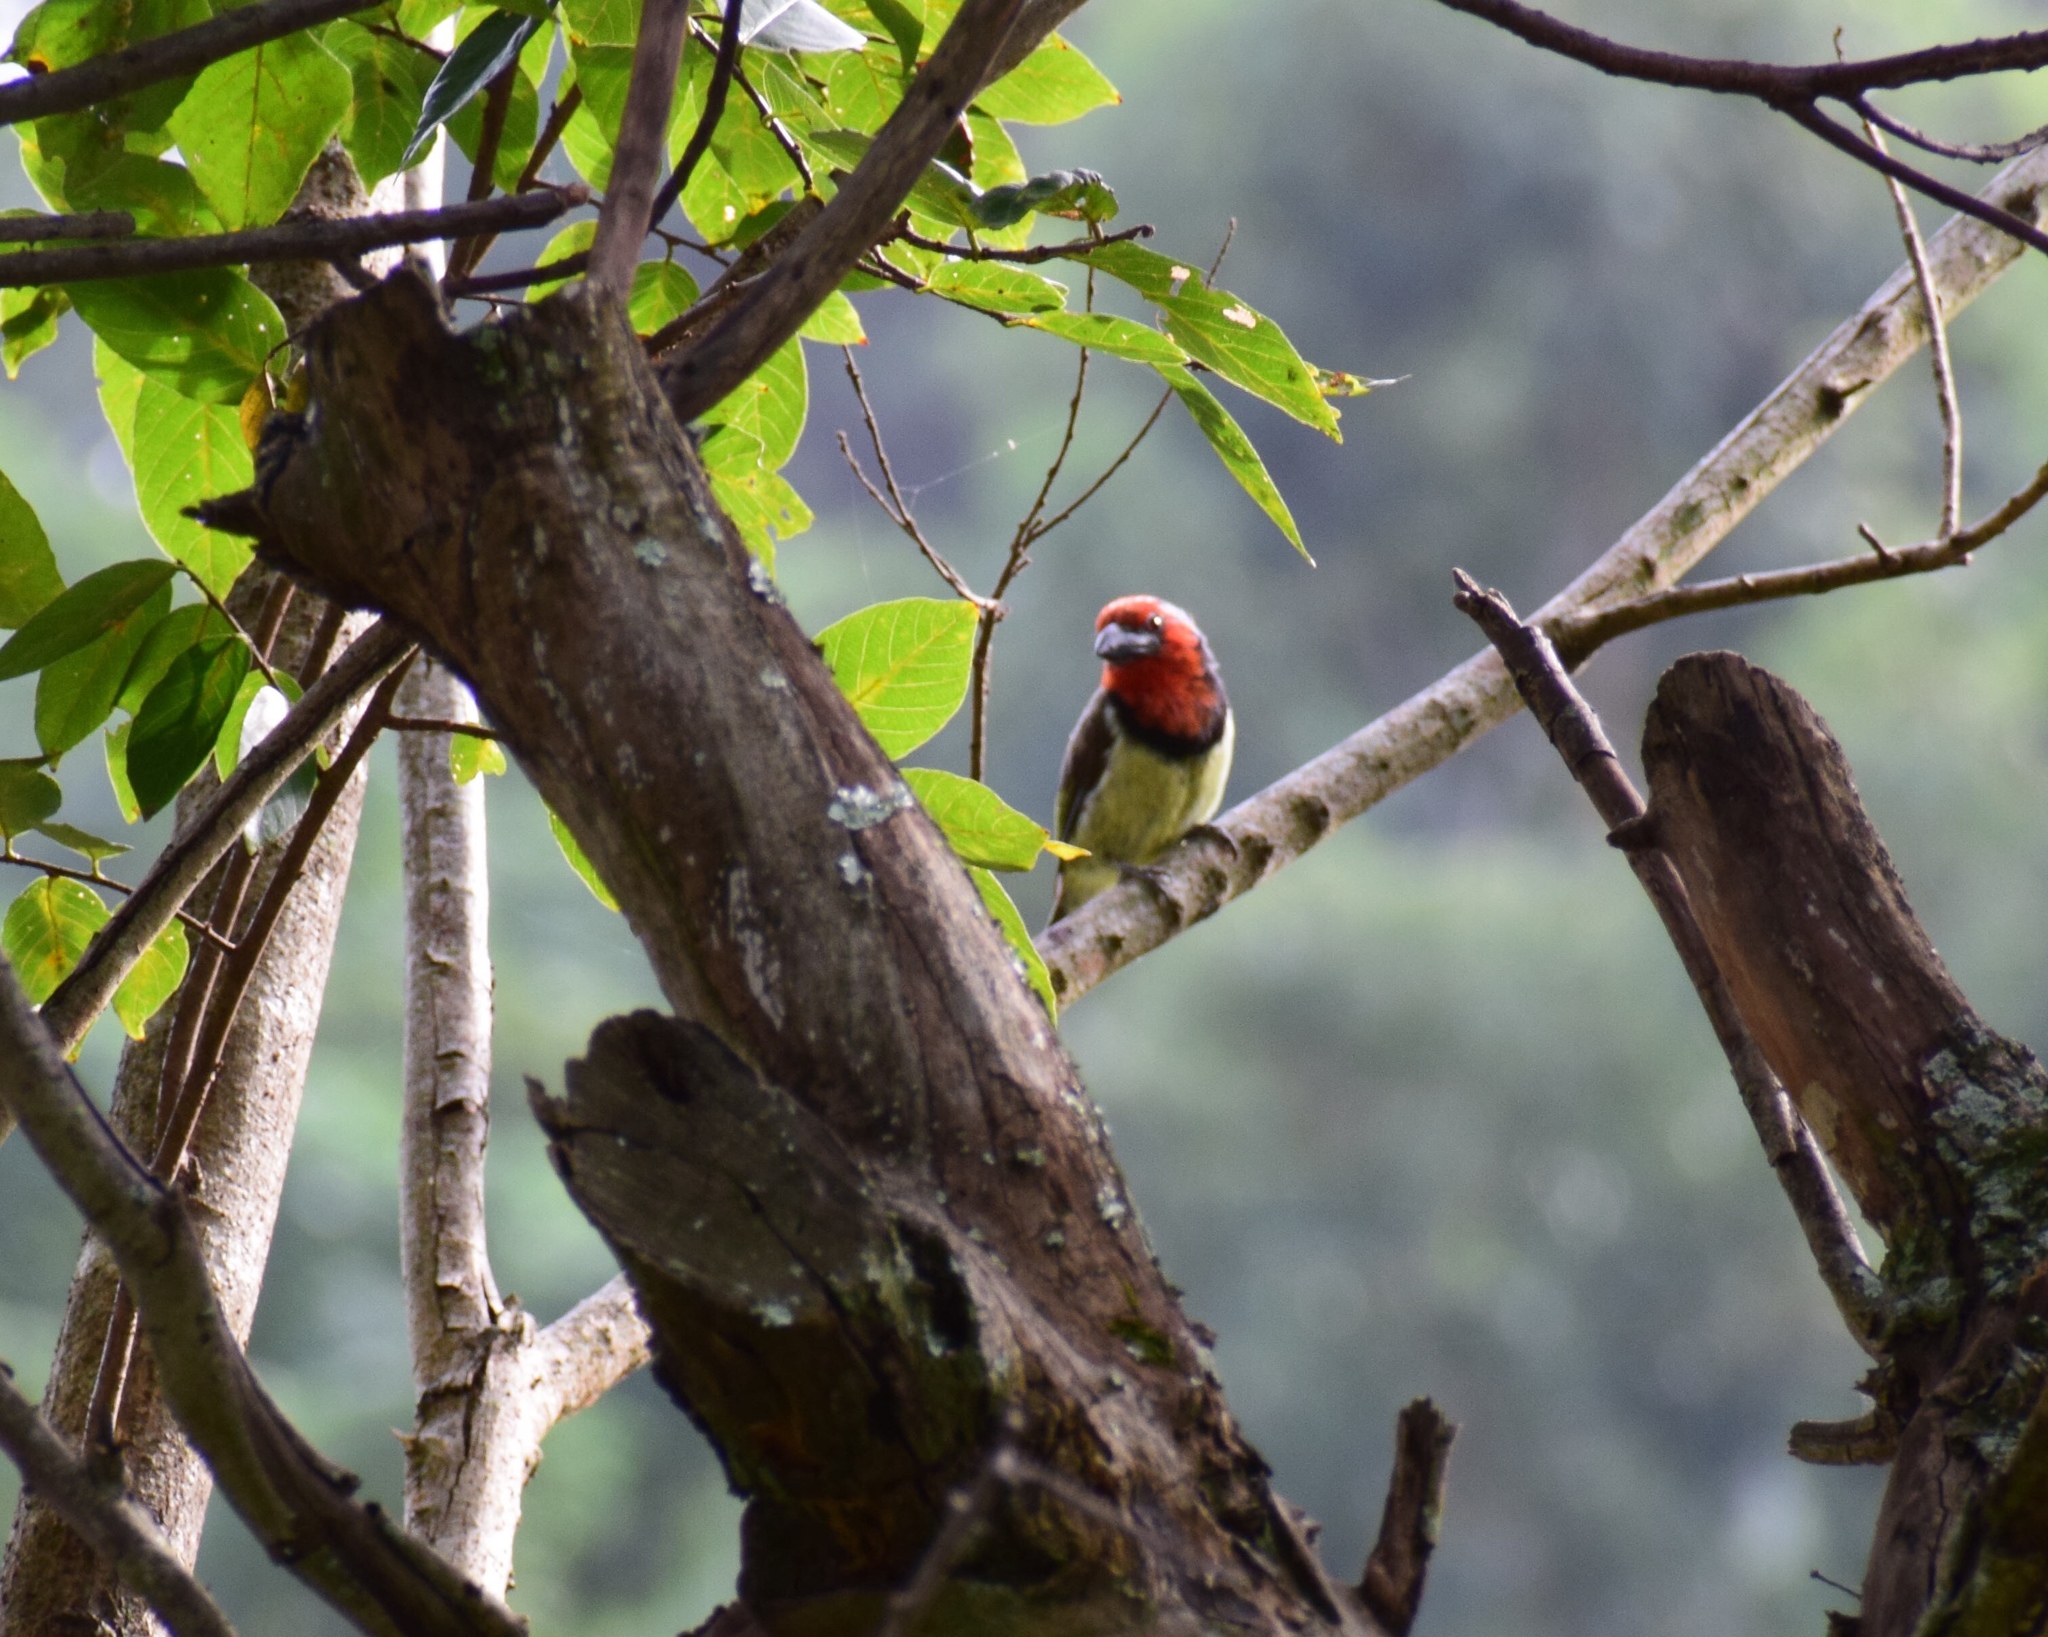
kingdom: Animalia
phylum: Chordata
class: Aves
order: Piciformes
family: Lybiidae
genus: Lybius
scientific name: Lybius torquatus
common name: Black-collared barbet
